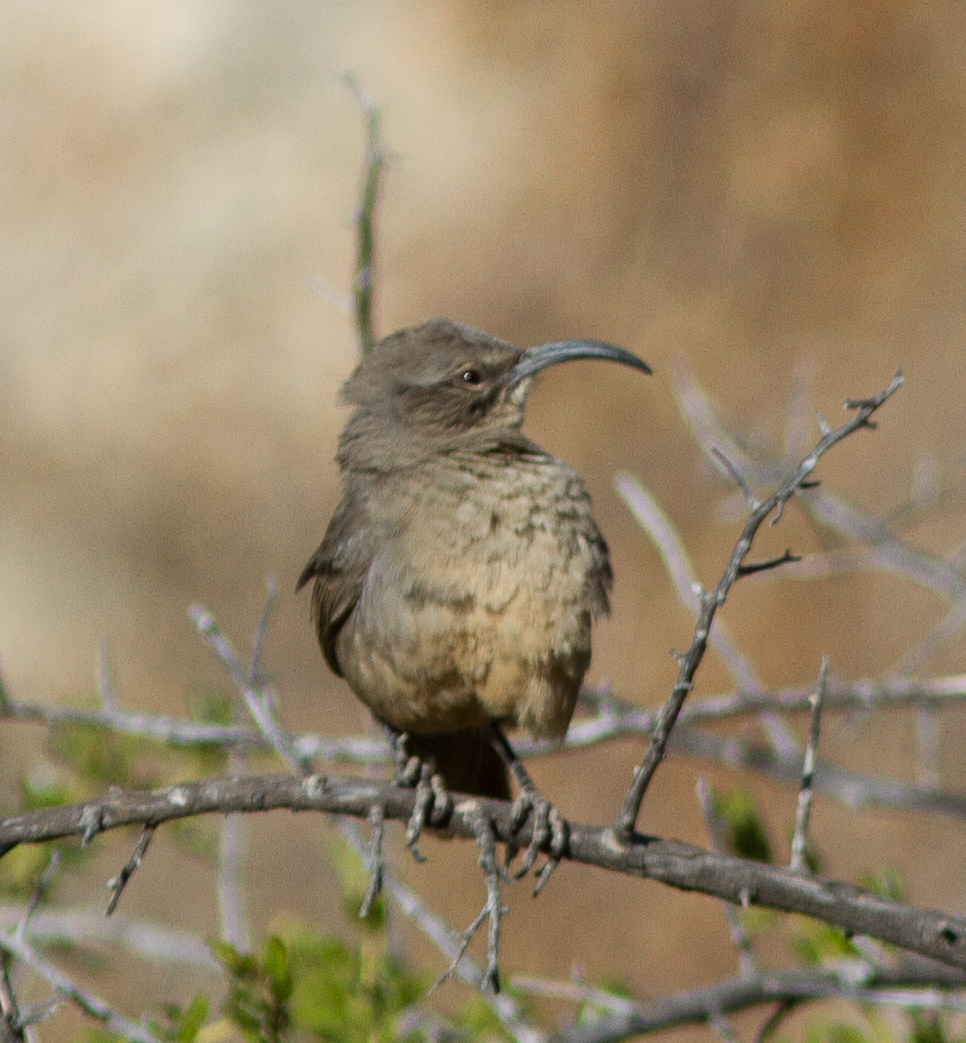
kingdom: Animalia
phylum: Chordata
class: Aves
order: Passeriformes
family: Mimidae
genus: Toxostoma
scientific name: Toxostoma redivivum
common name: California thrasher
